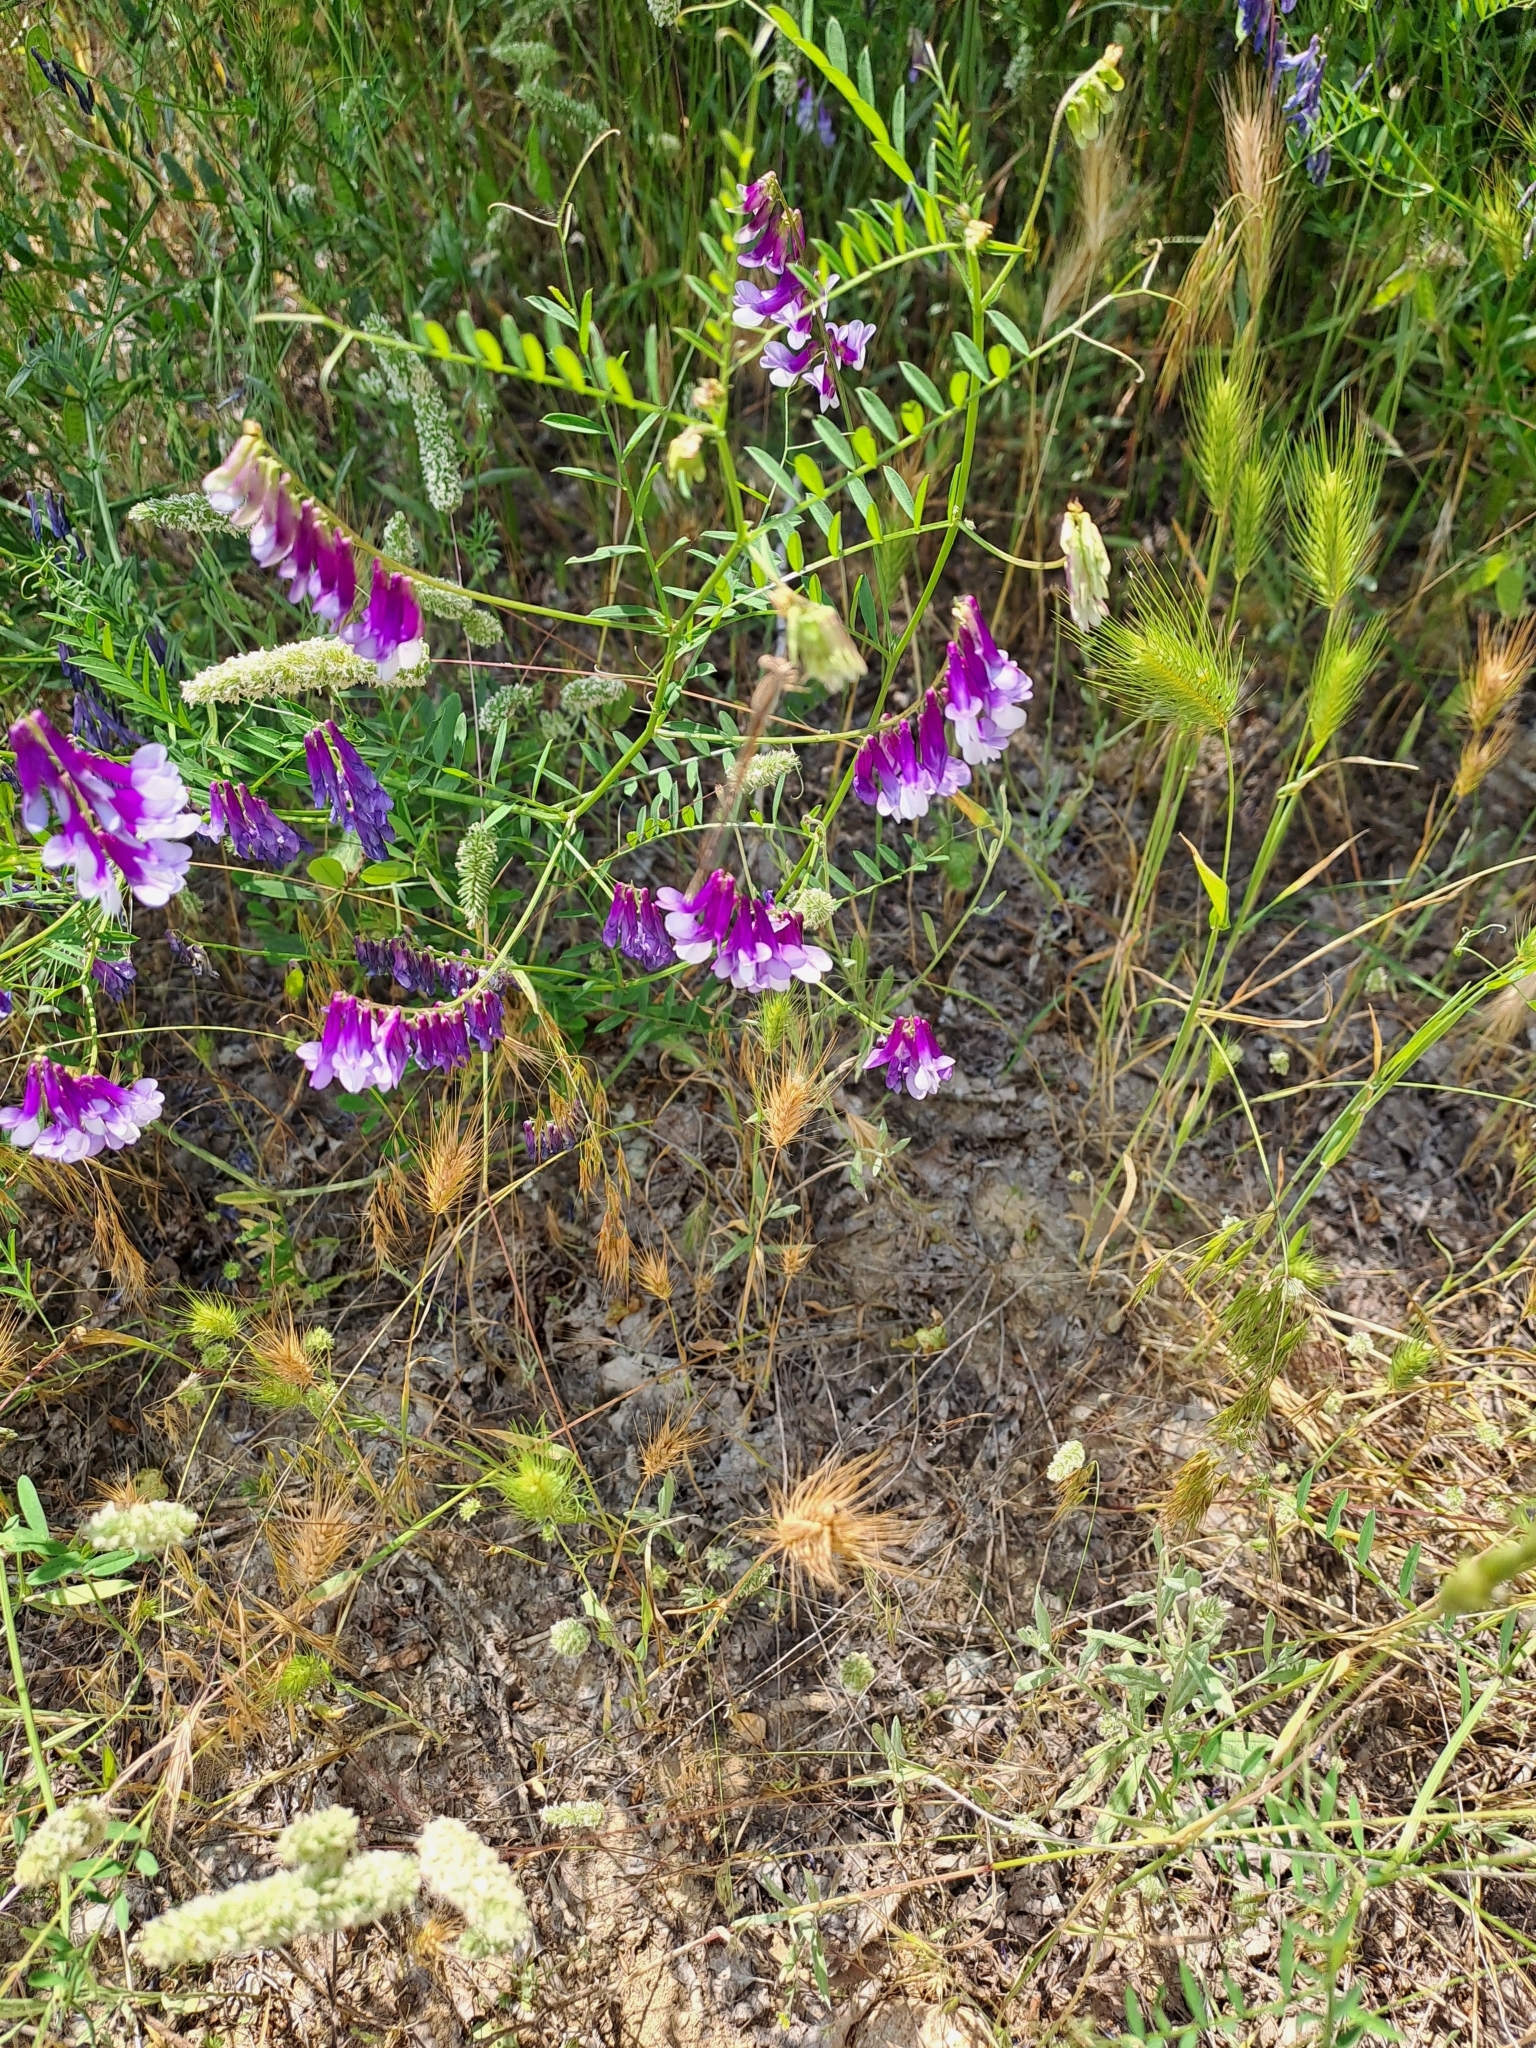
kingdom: Animalia
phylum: Arthropoda
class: Insecta
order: Odonata
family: Lestidae
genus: Sympecma
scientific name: Sympecma fusca
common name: Common winter damsel
